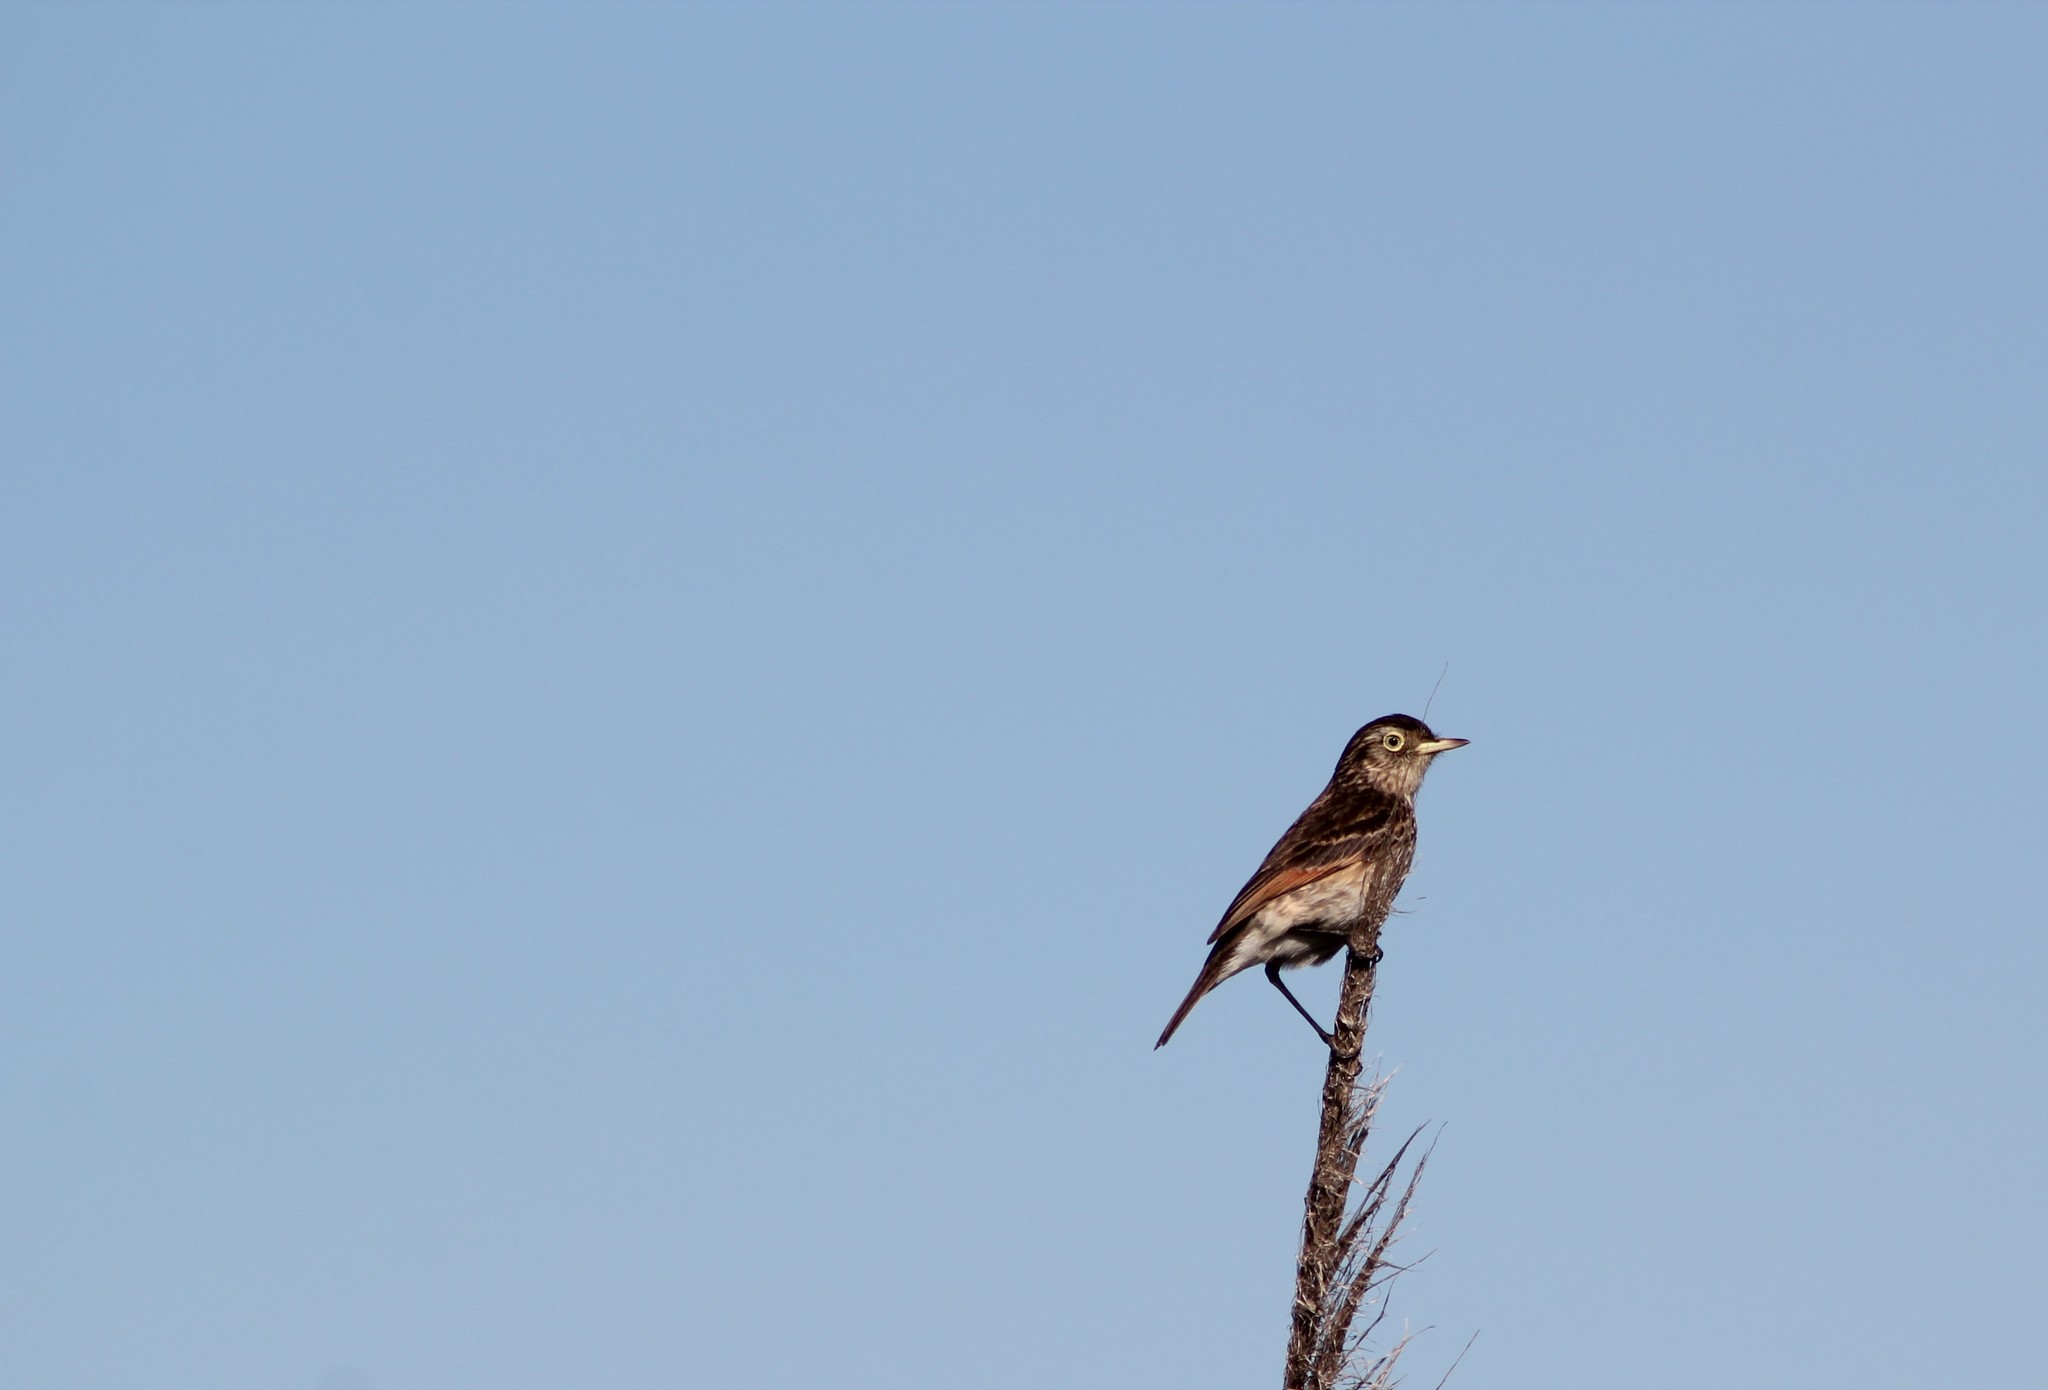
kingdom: Animalia
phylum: Chordata
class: Aves
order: Passeriformes
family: Tyrannidae
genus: Hymenops
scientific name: Hymenops perspicillatus
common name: Spectacled tyrant
